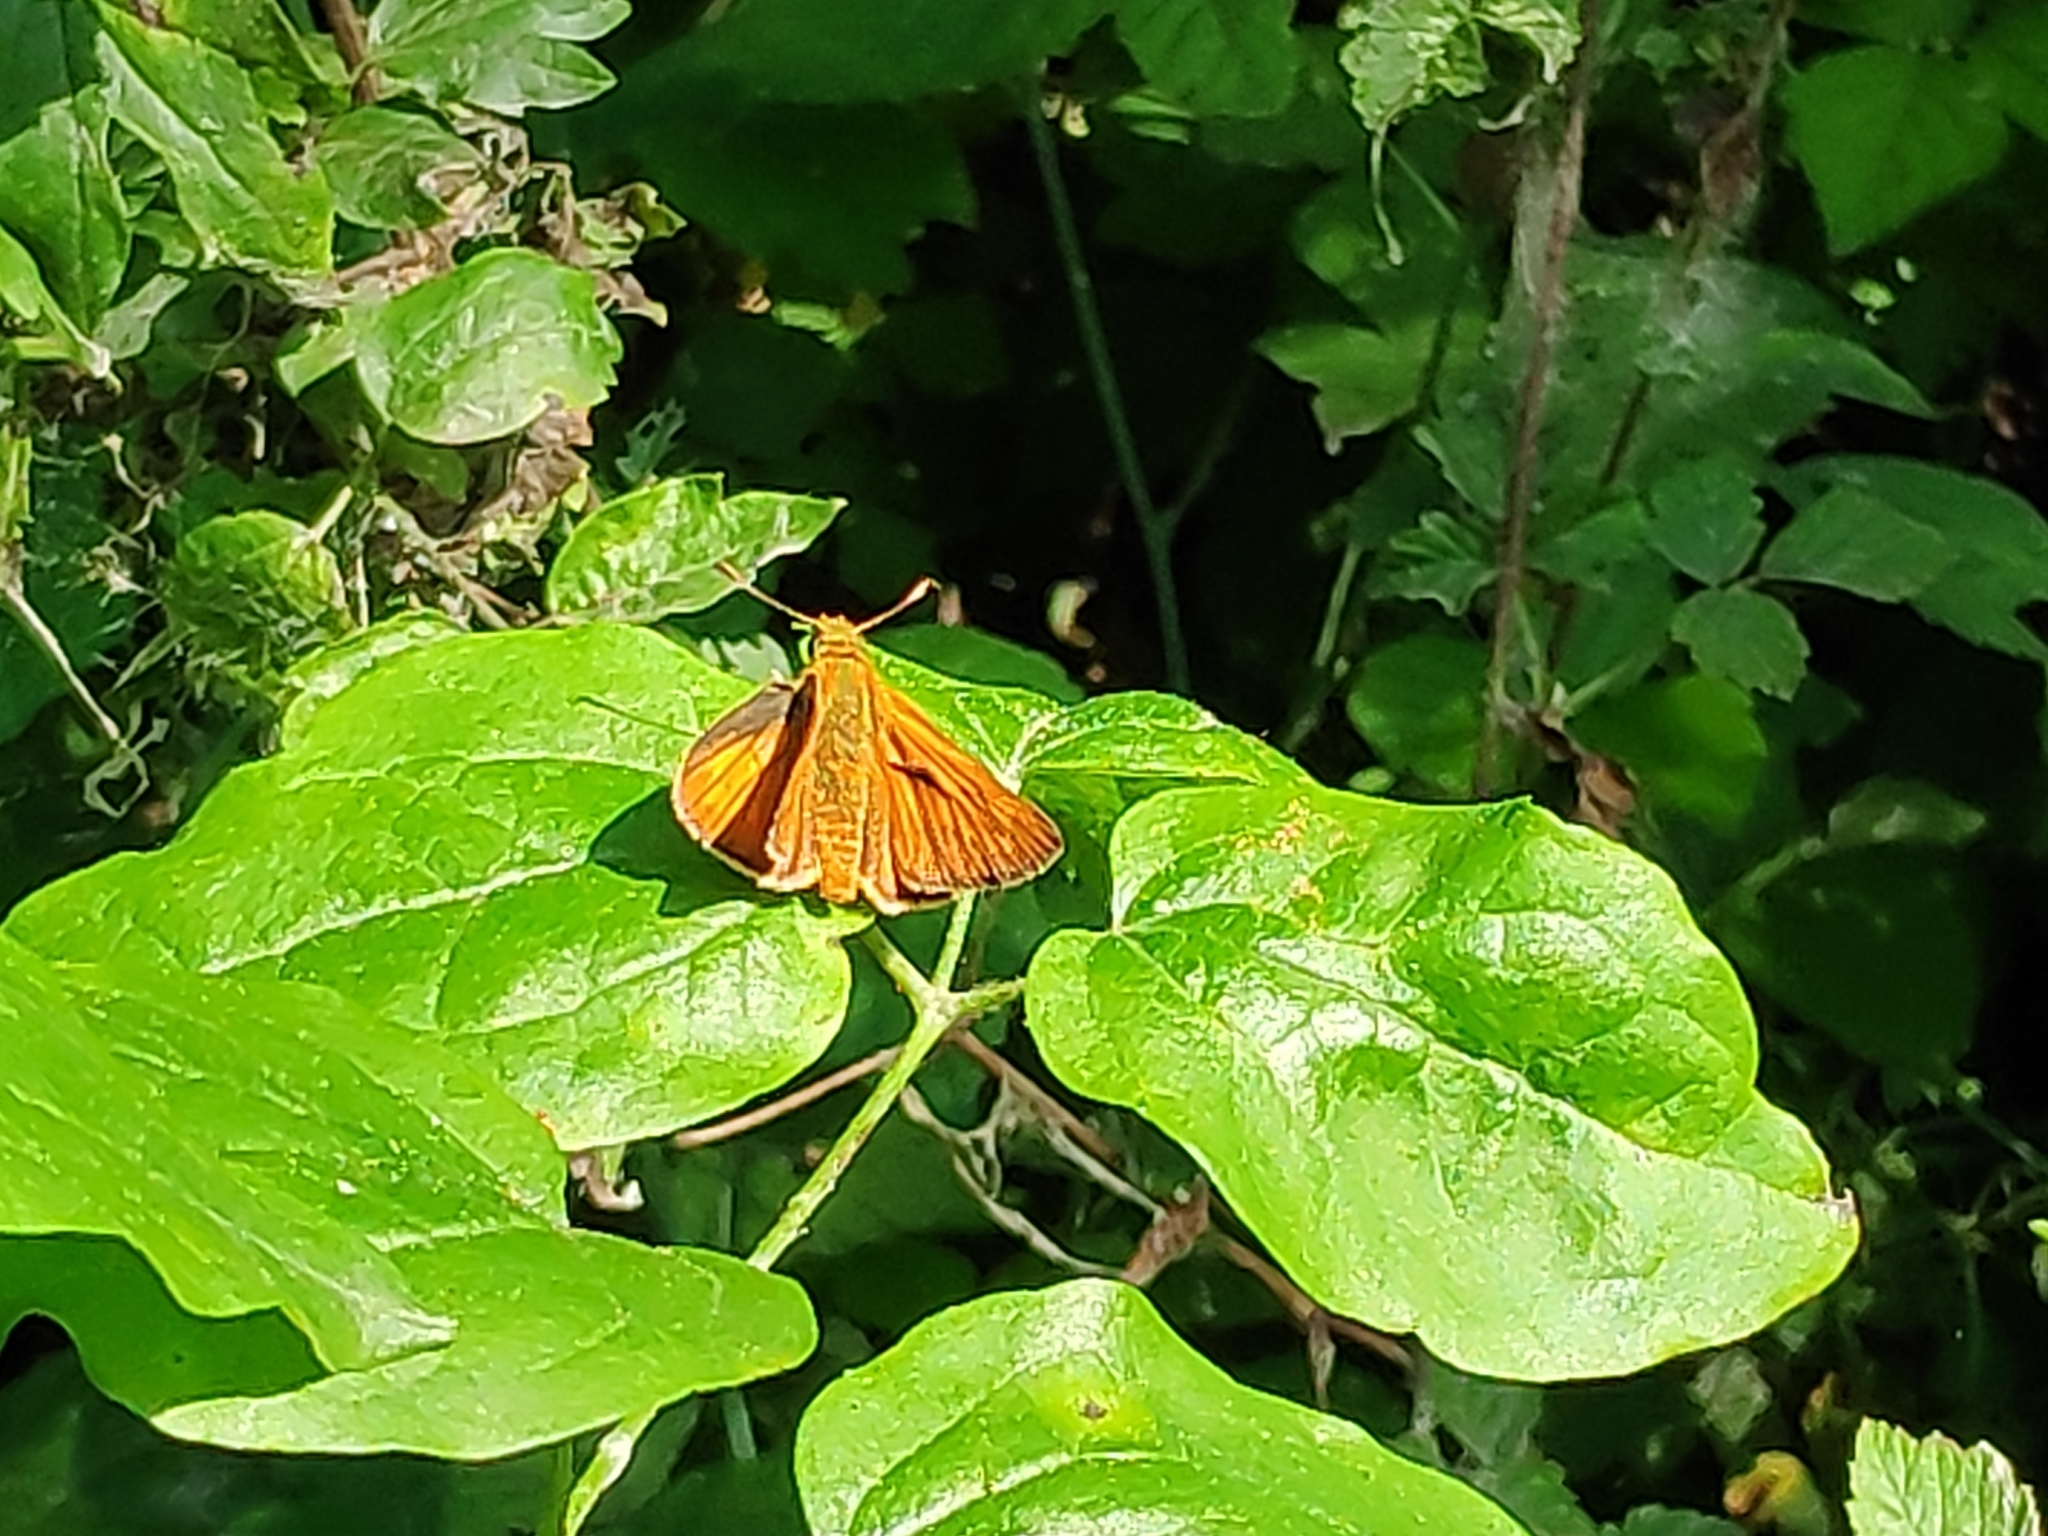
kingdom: Animalia
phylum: Arthropoda
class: Insecta
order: Lepidoptera
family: Hesperiidae
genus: Ochlodes
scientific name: Ochlodes venata
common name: Large skipper
